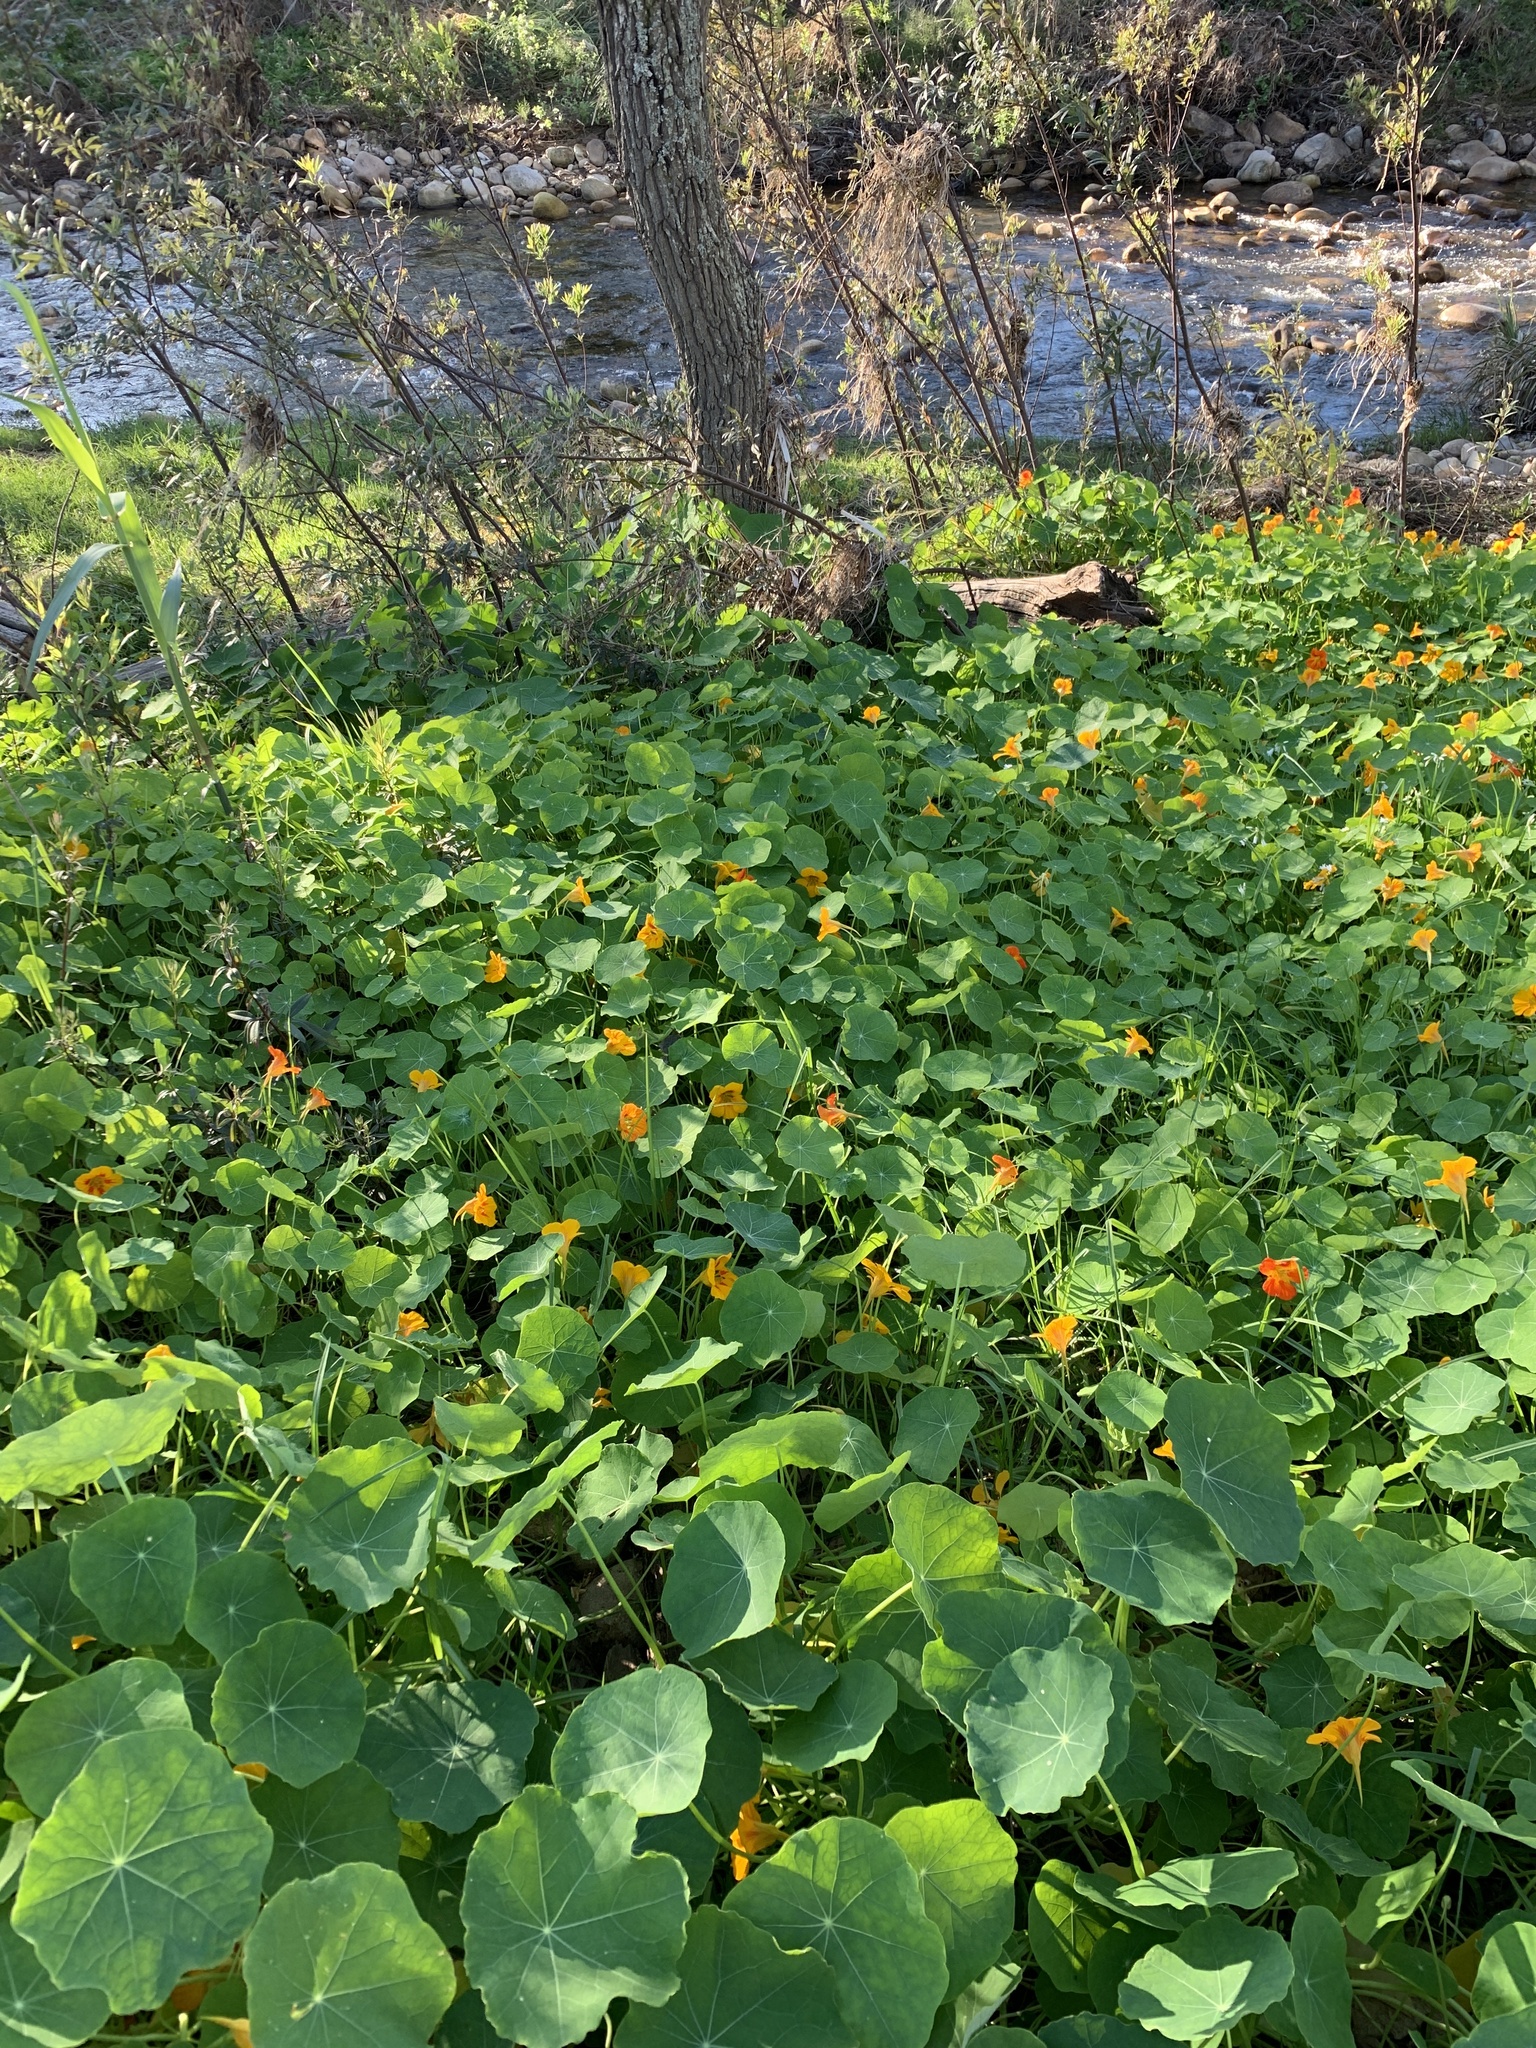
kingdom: Plantae
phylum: Tracheophyta
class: Magnoliopsida
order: Brassicales
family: Tropaeolaceae
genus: Tropaeolum
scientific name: Tropaeolum majus
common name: Nasturtium
